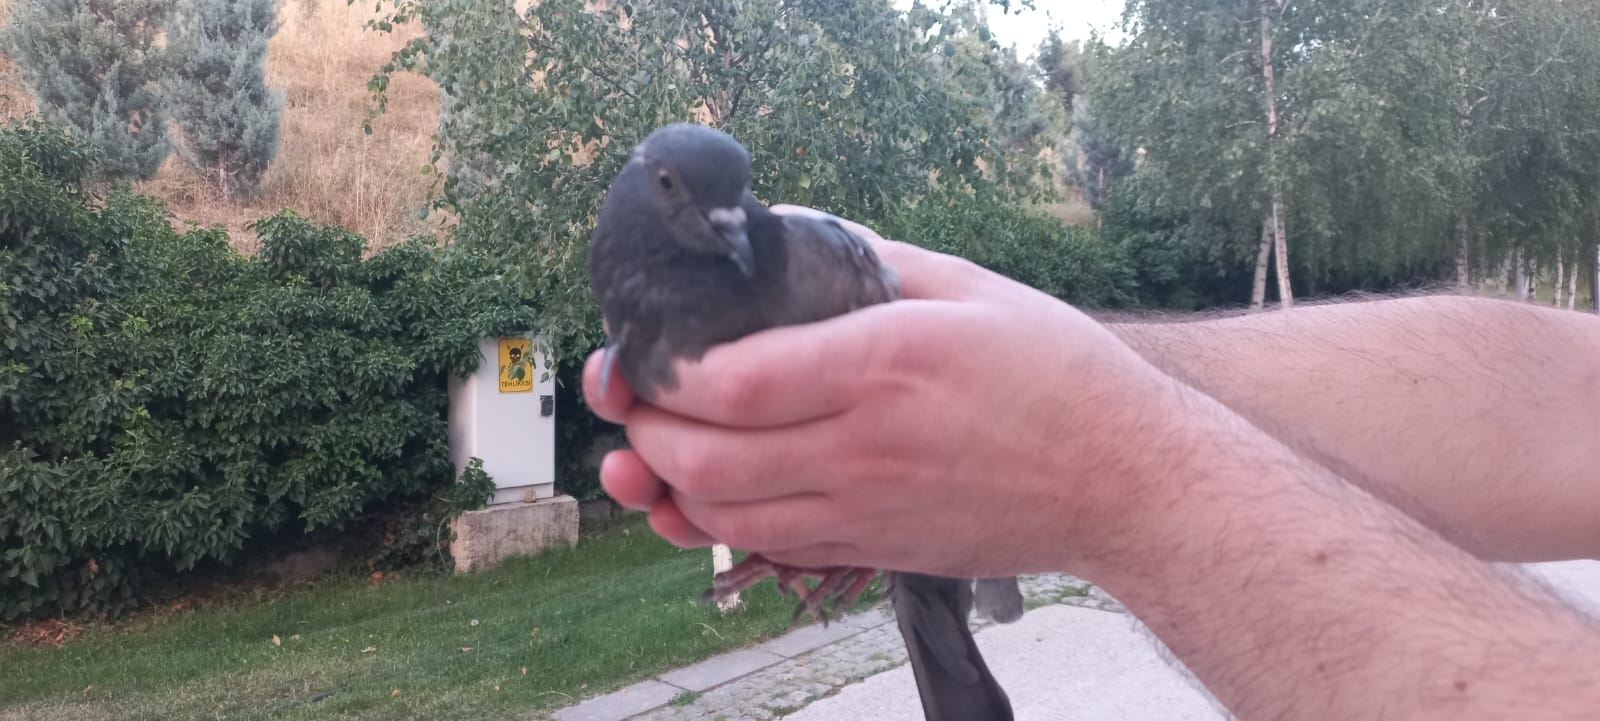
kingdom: Animalia
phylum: Chordata
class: Aves
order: Columbiformes
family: Columbidae
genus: Columba
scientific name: Columba livia
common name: Rock pigeon
